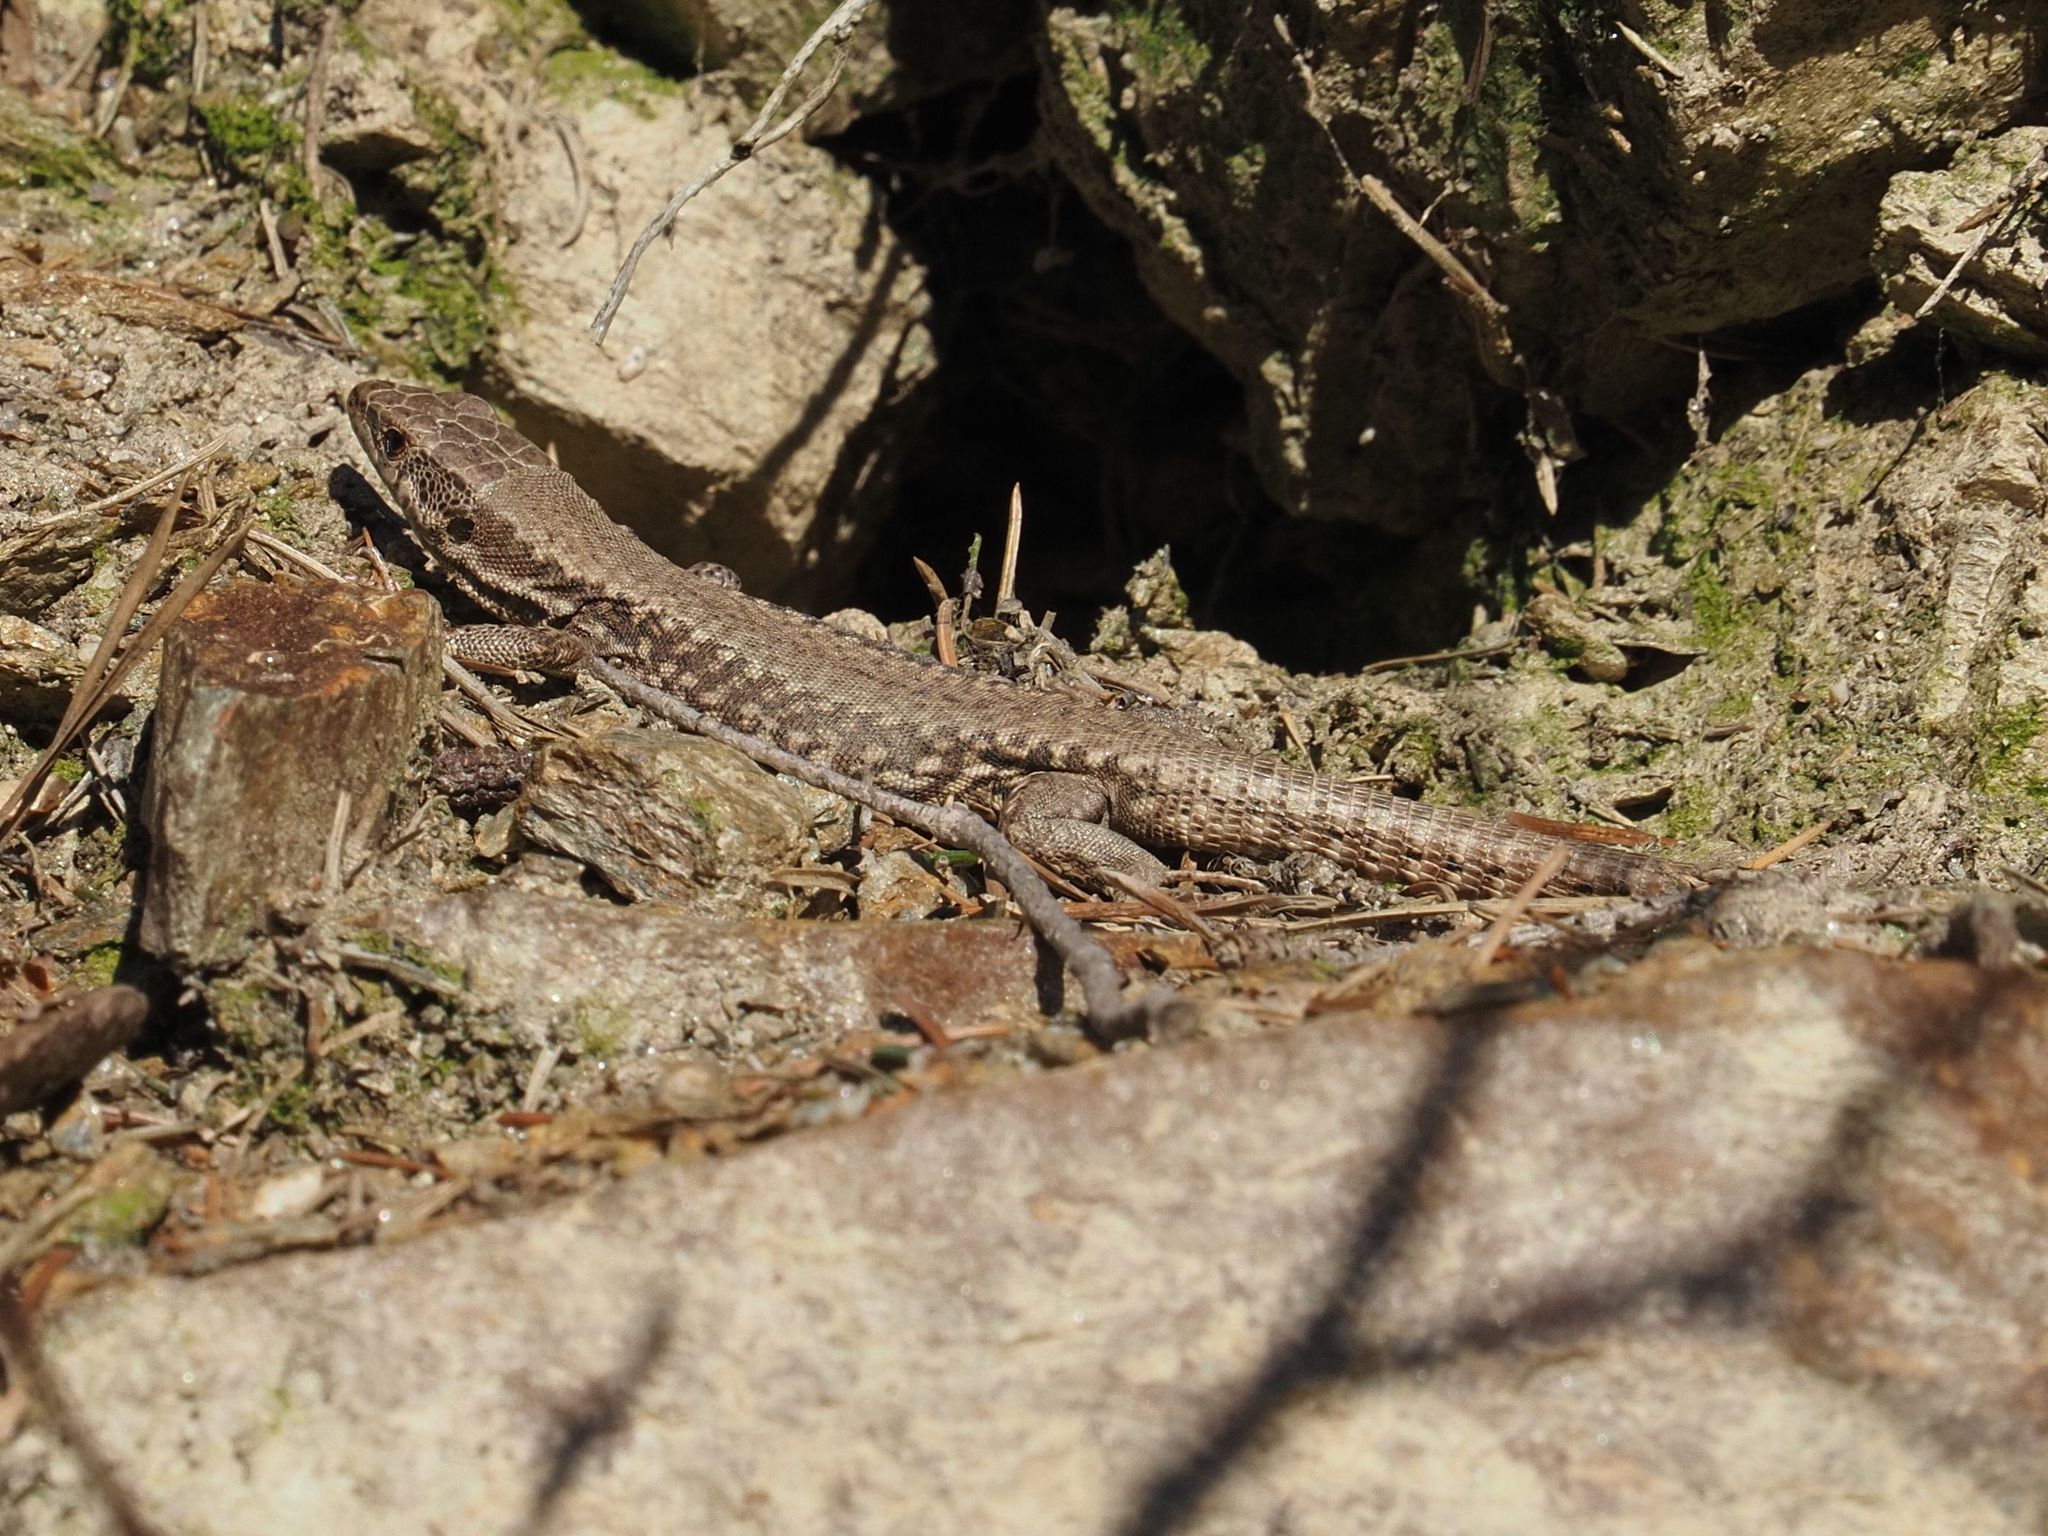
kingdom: Animalia
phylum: Chordata
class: Squamata
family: Lacertidae
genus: Podarcis
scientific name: Podarcis muralis
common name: Common wall lizard
